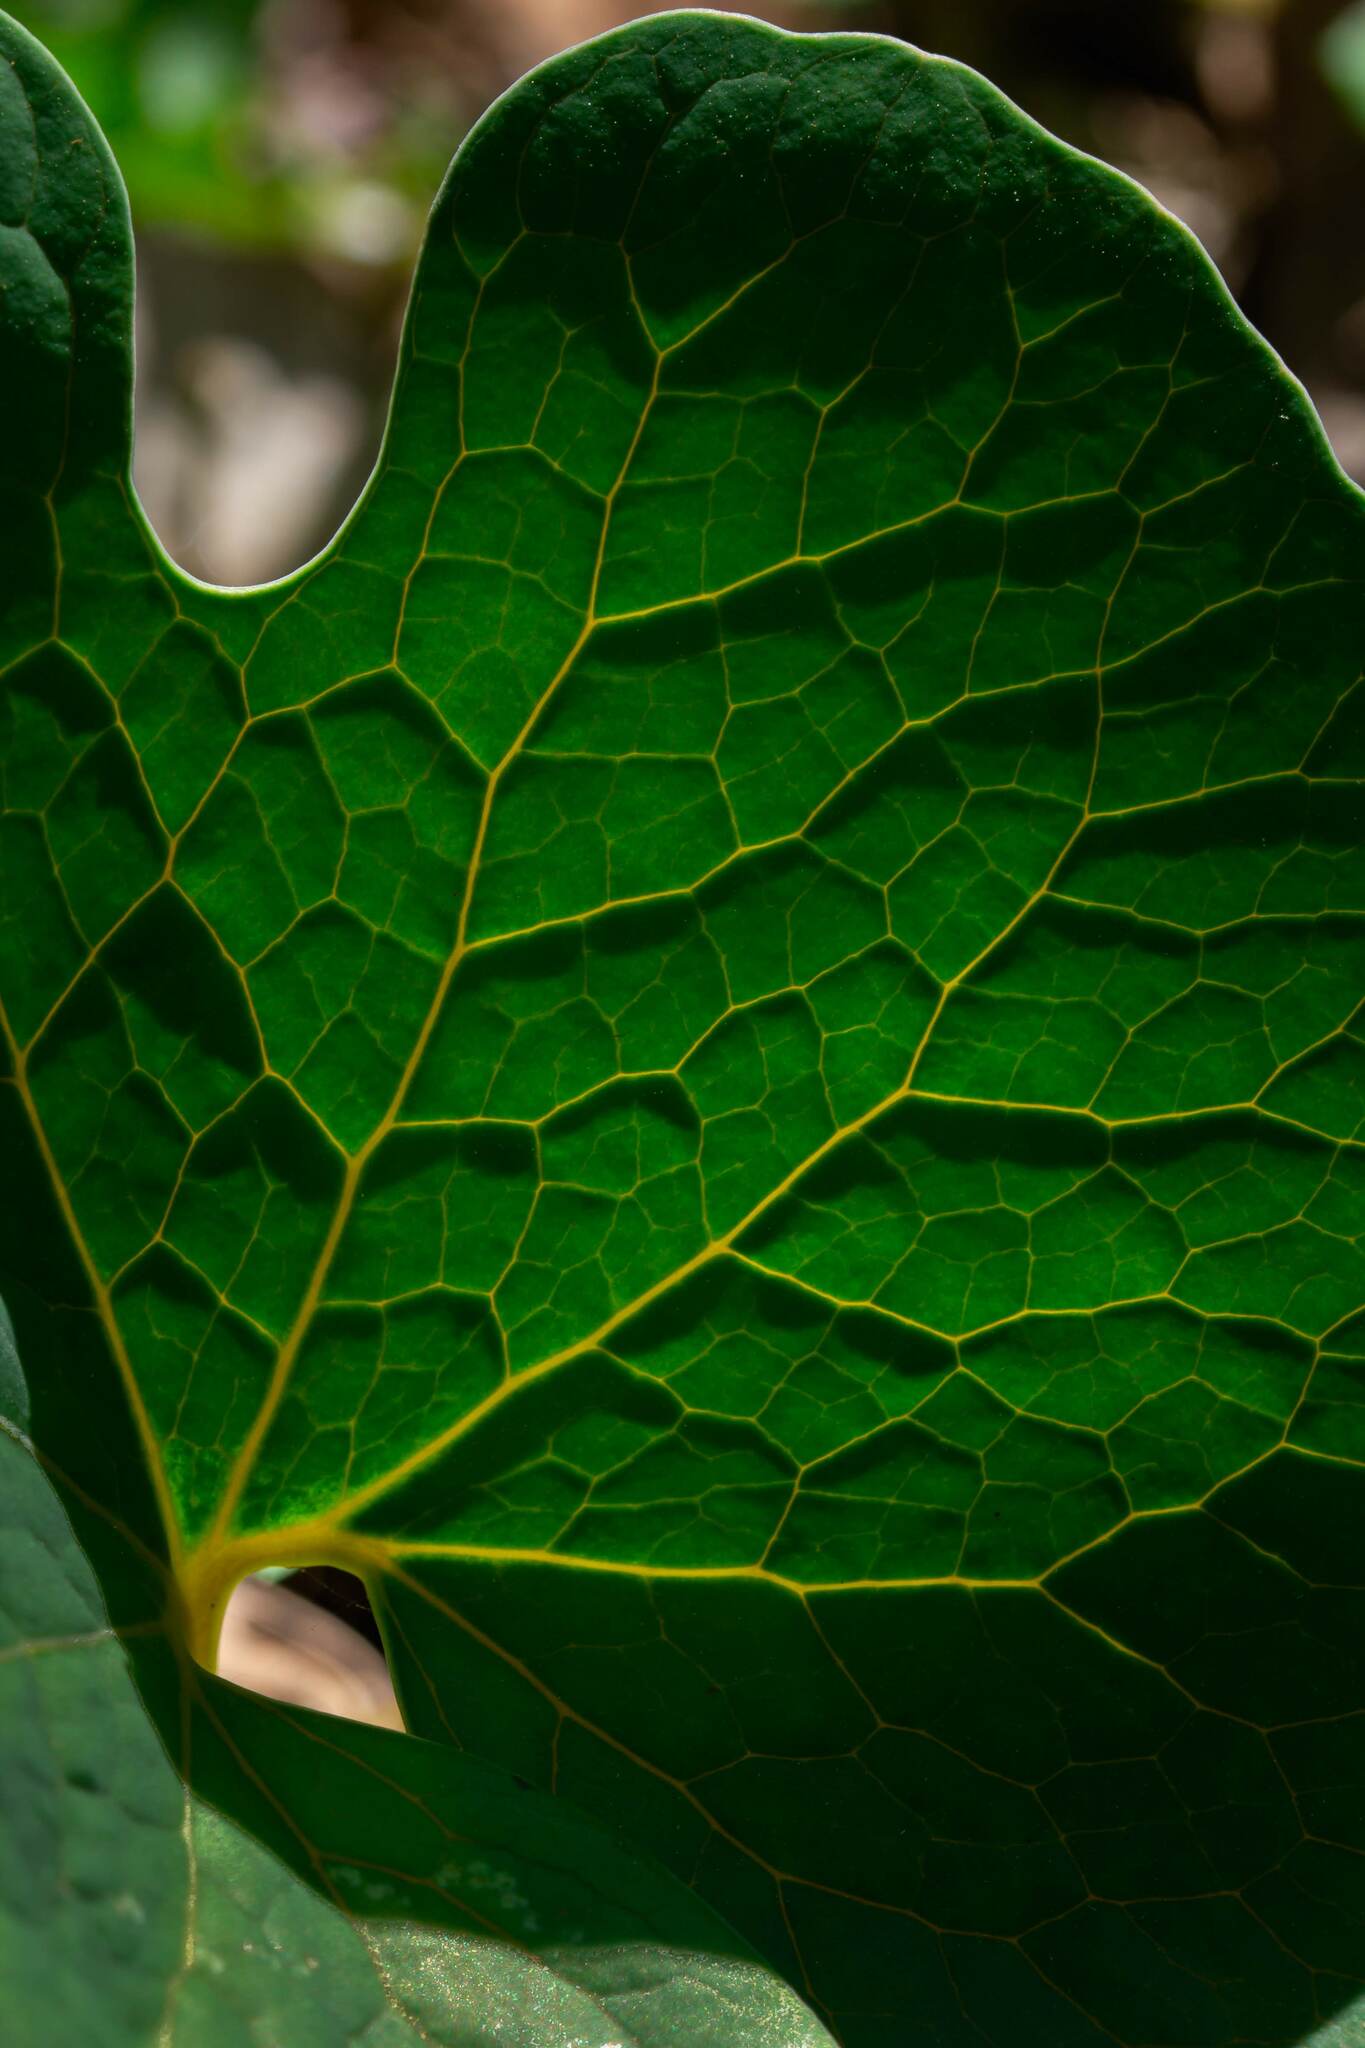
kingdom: Plantae
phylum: Tracheophyta
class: Magnoliopsida
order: Ranunculales
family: Papaveraceae
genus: Sanguinaria
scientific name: Sanguinaria canadensis
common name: Bloodroot
